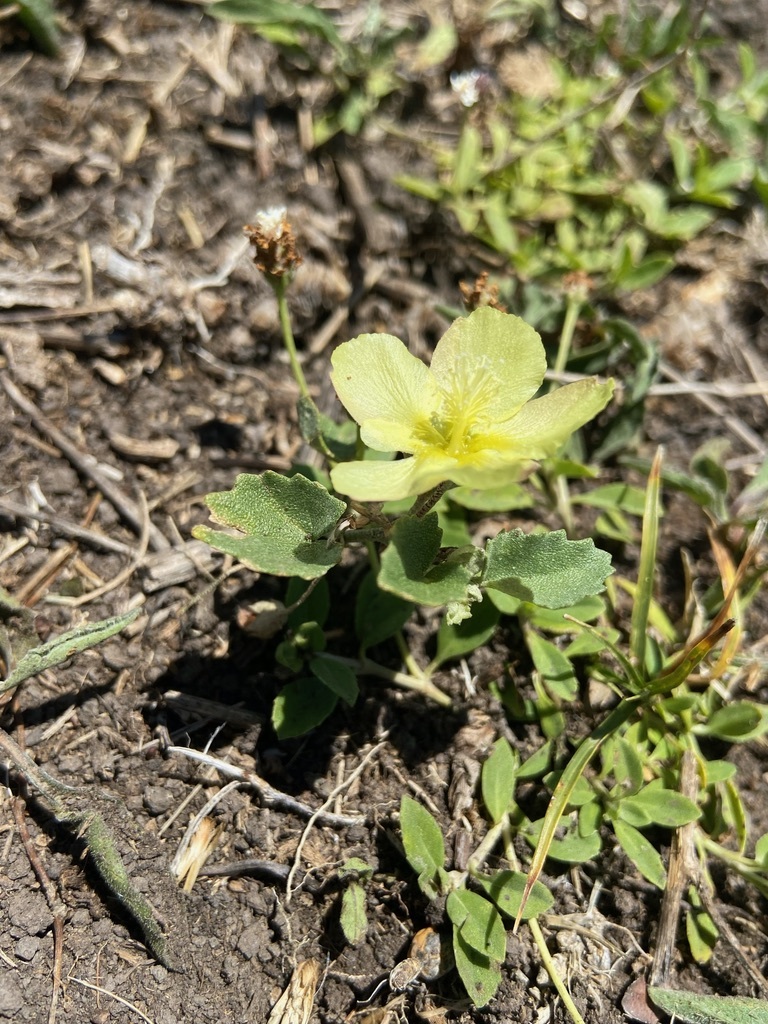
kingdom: Plantae
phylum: Tracheophyta
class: Magnoliopsida
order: Malvales
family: Malvaceae
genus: Malvella
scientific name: Malvella leprosa
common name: Alkali-mallow
